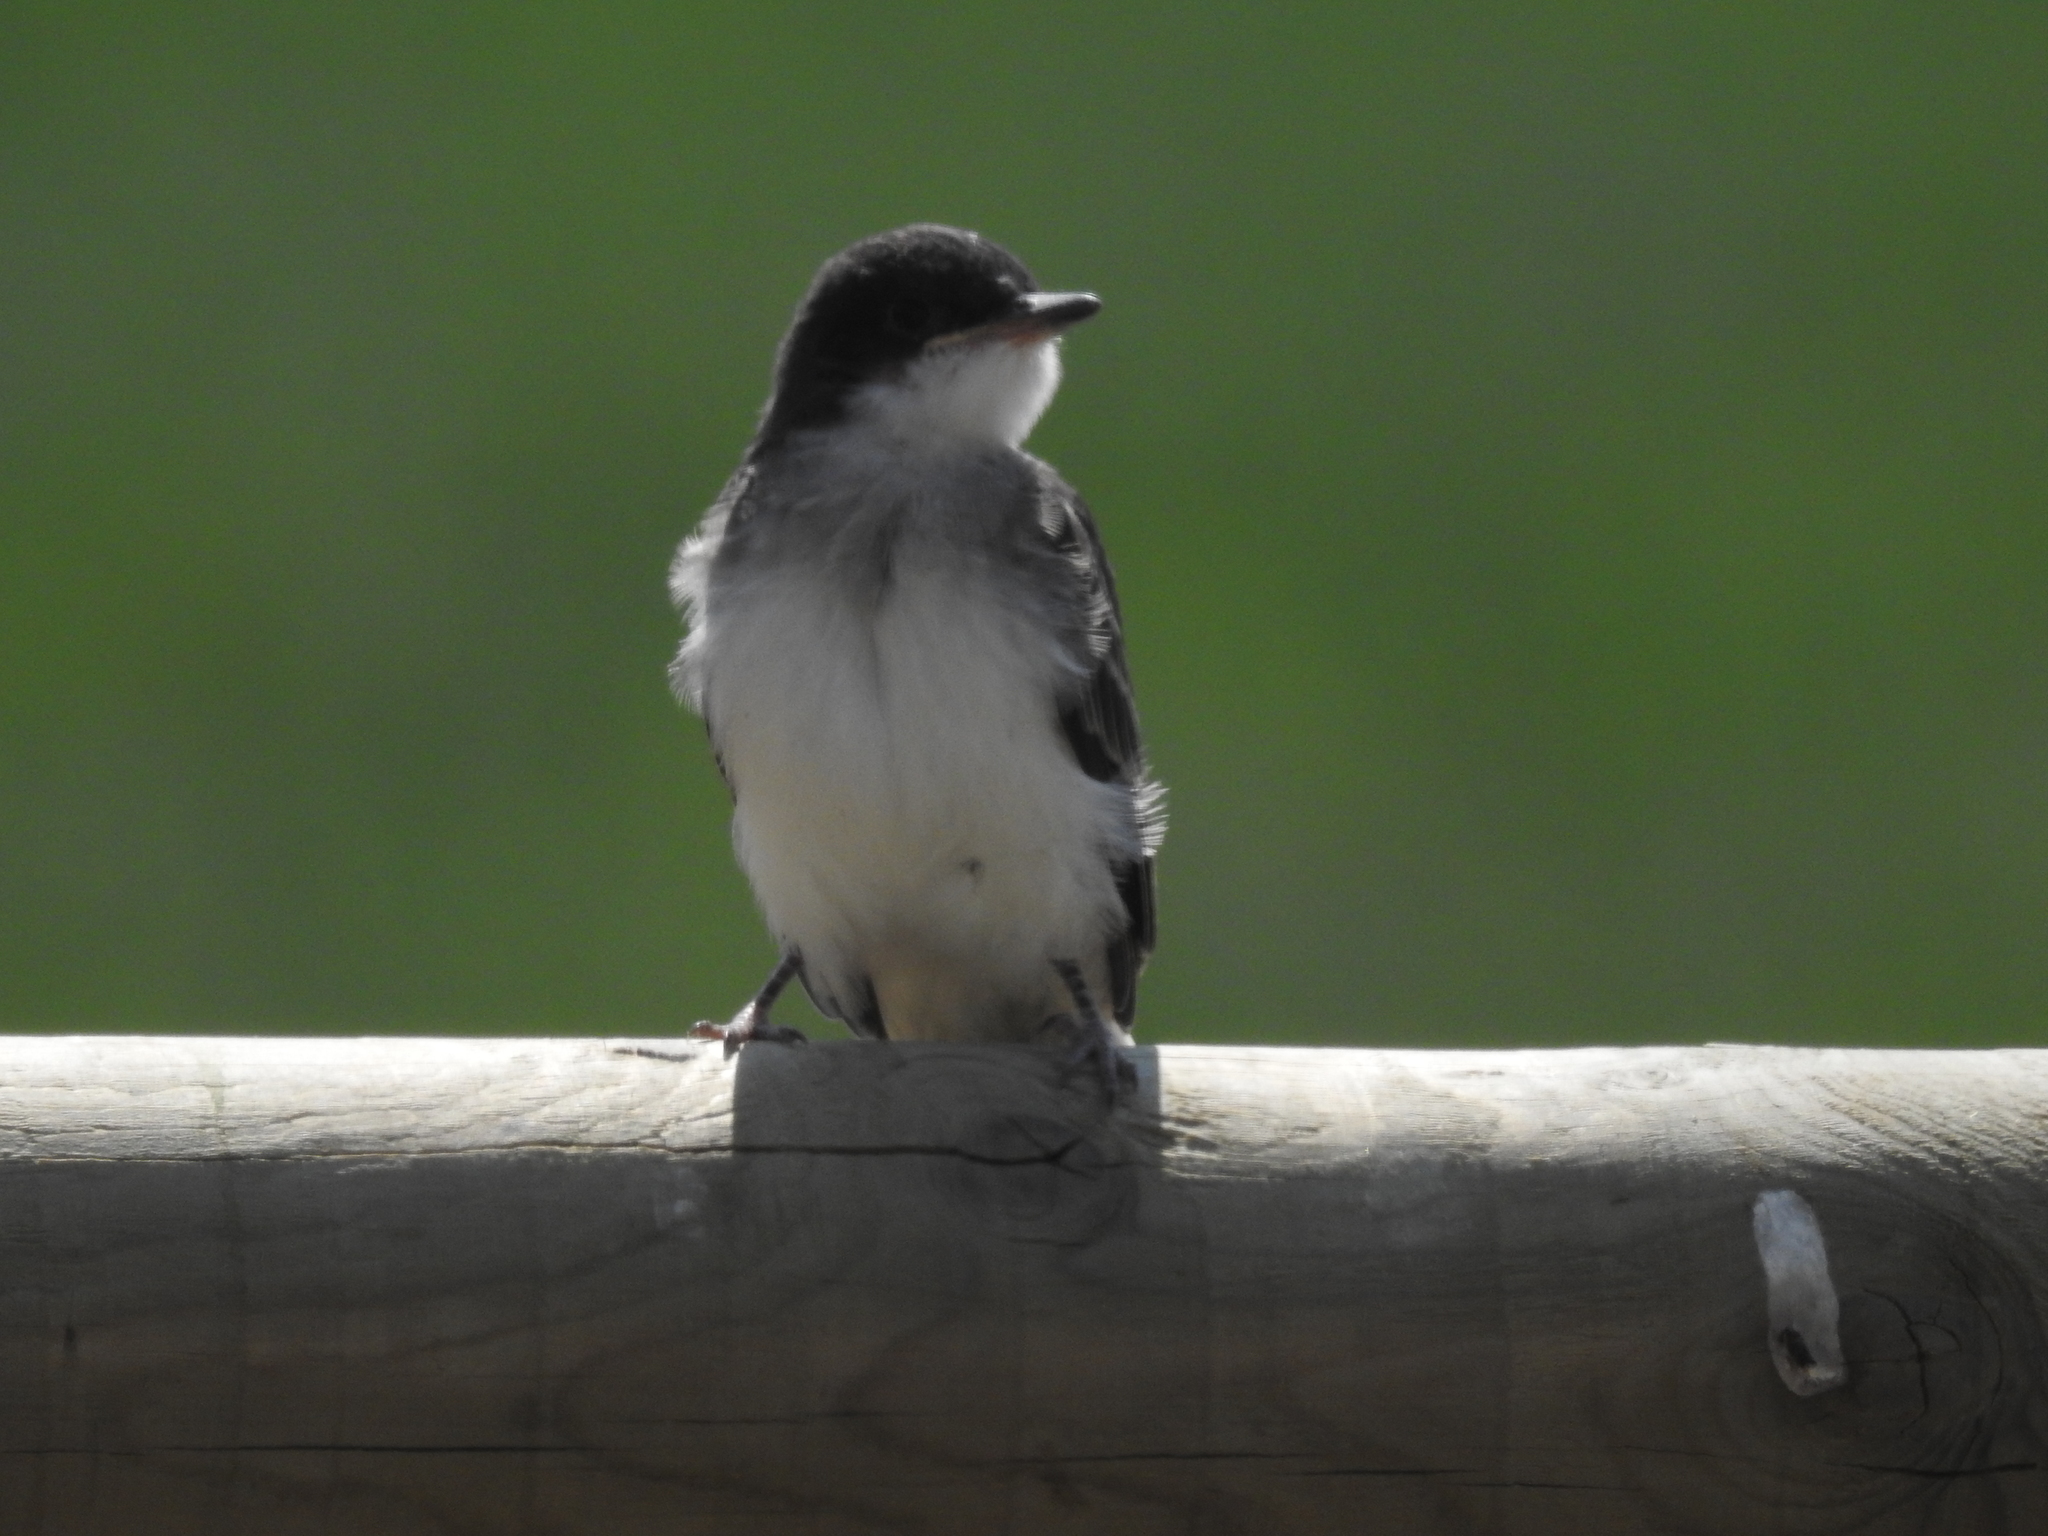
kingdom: Animalia
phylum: Chordata
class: Aves
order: Passeriformes
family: Tyrannidae
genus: Tyrannus
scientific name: Tyrannus tyrannus
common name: Eastern kingbird
